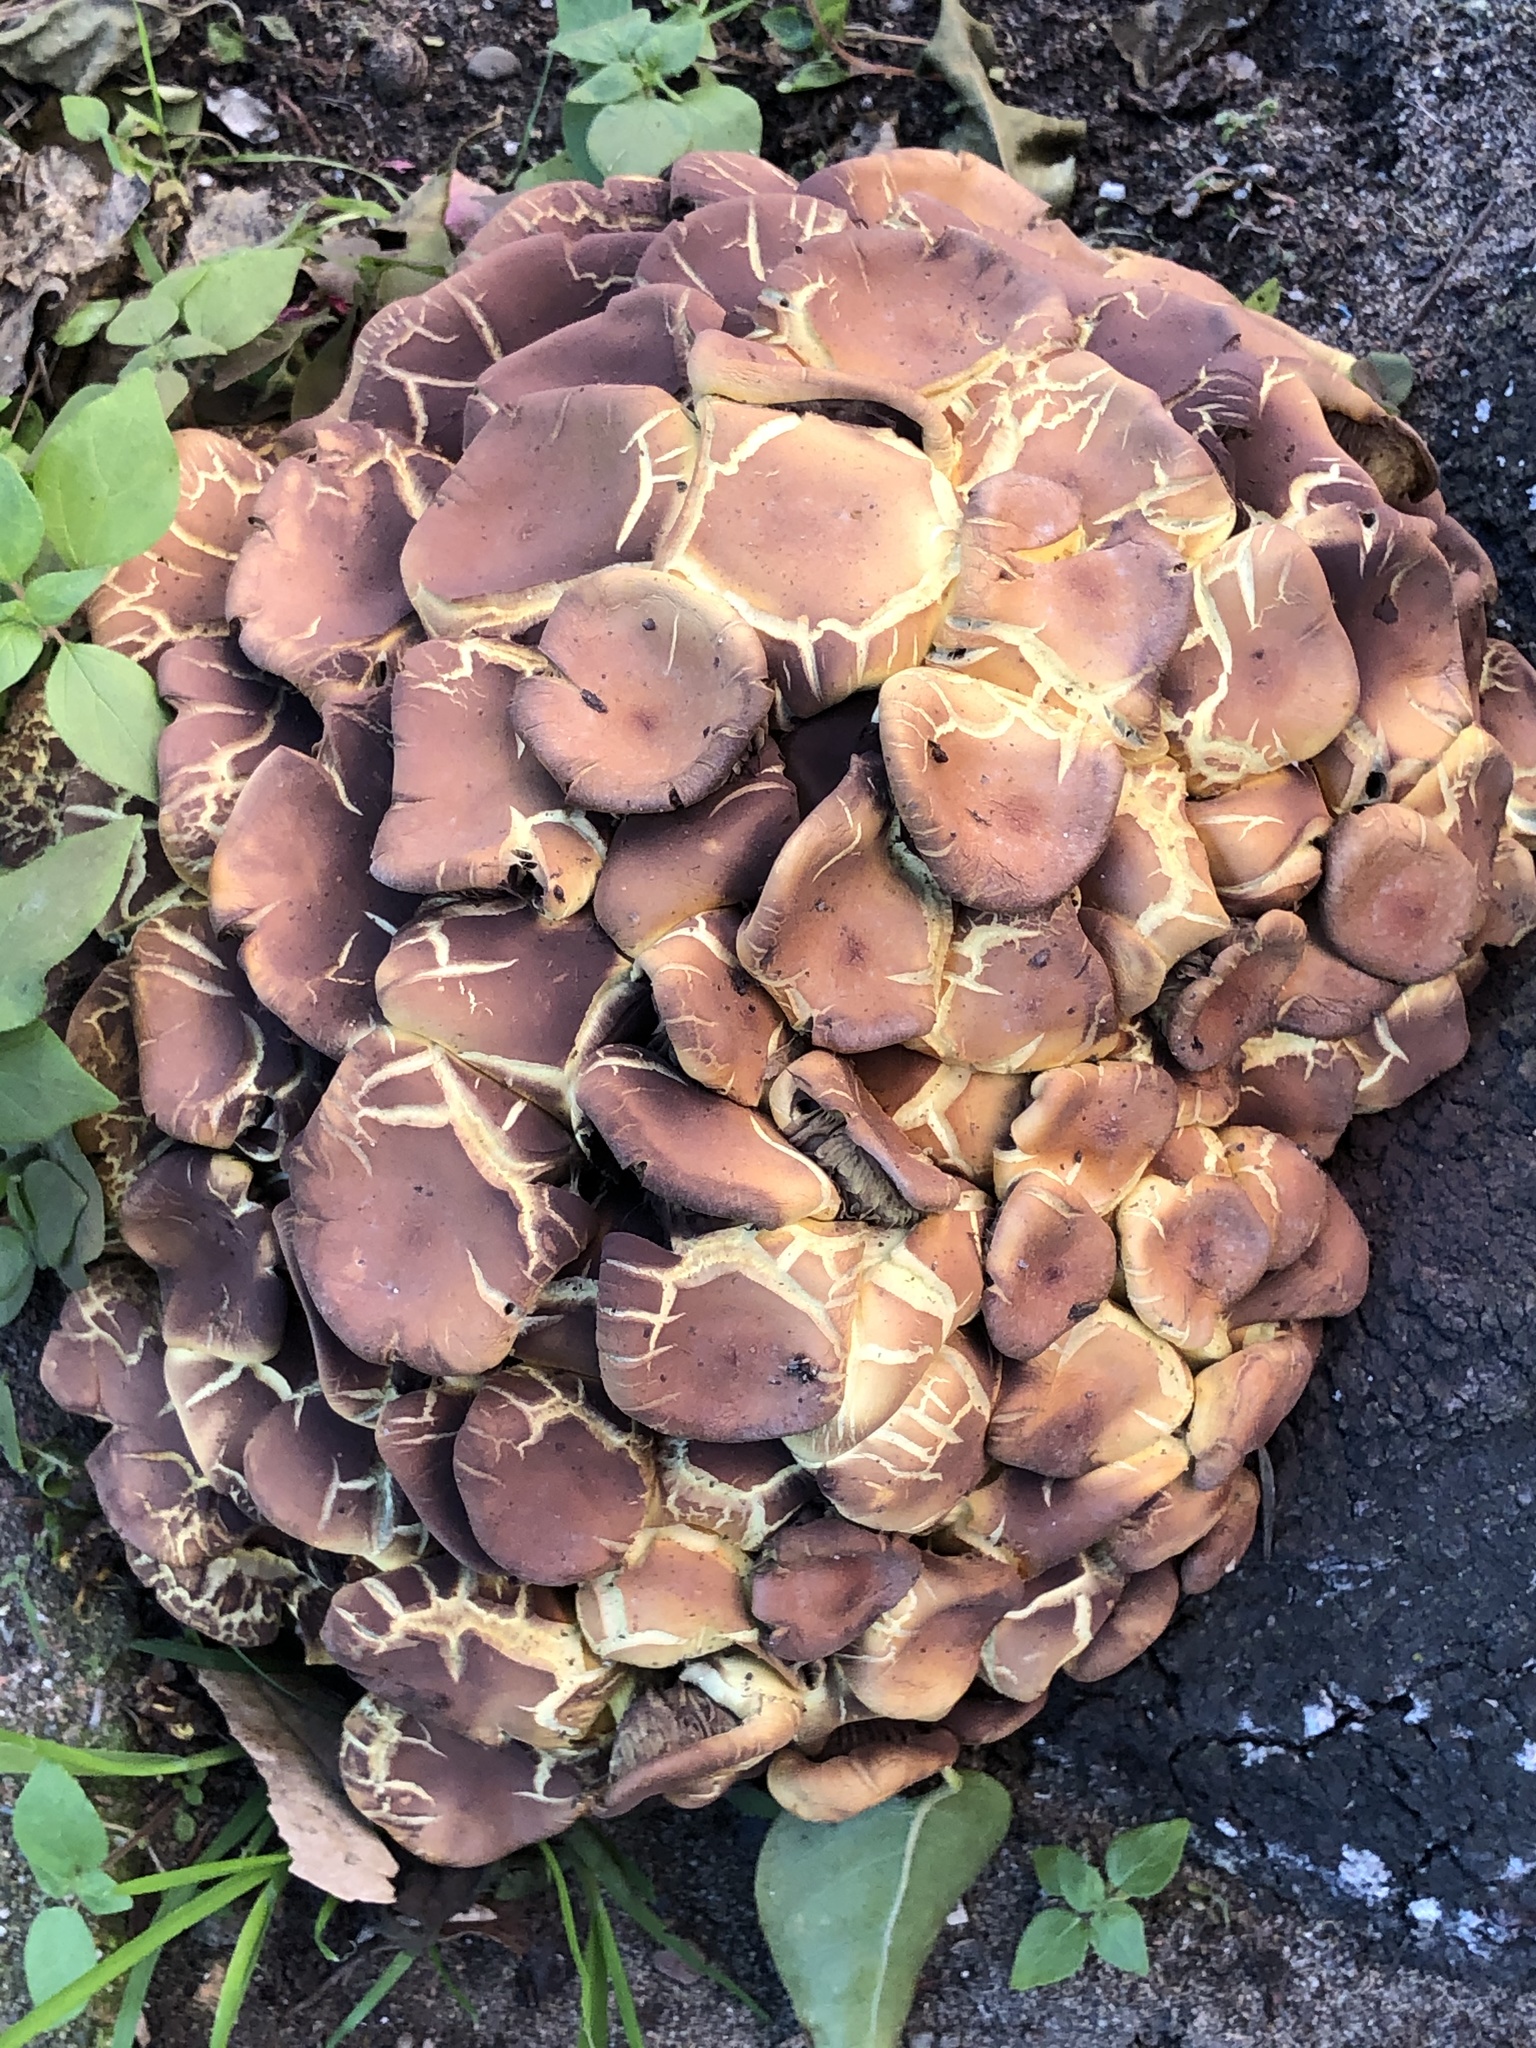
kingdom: Fungi
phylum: Basidiomycota
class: Agaricomycetes
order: Agaricales
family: Strophariaceae
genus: Hypholoma
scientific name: Hypholoma fasciculare
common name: Sulphur tuft
